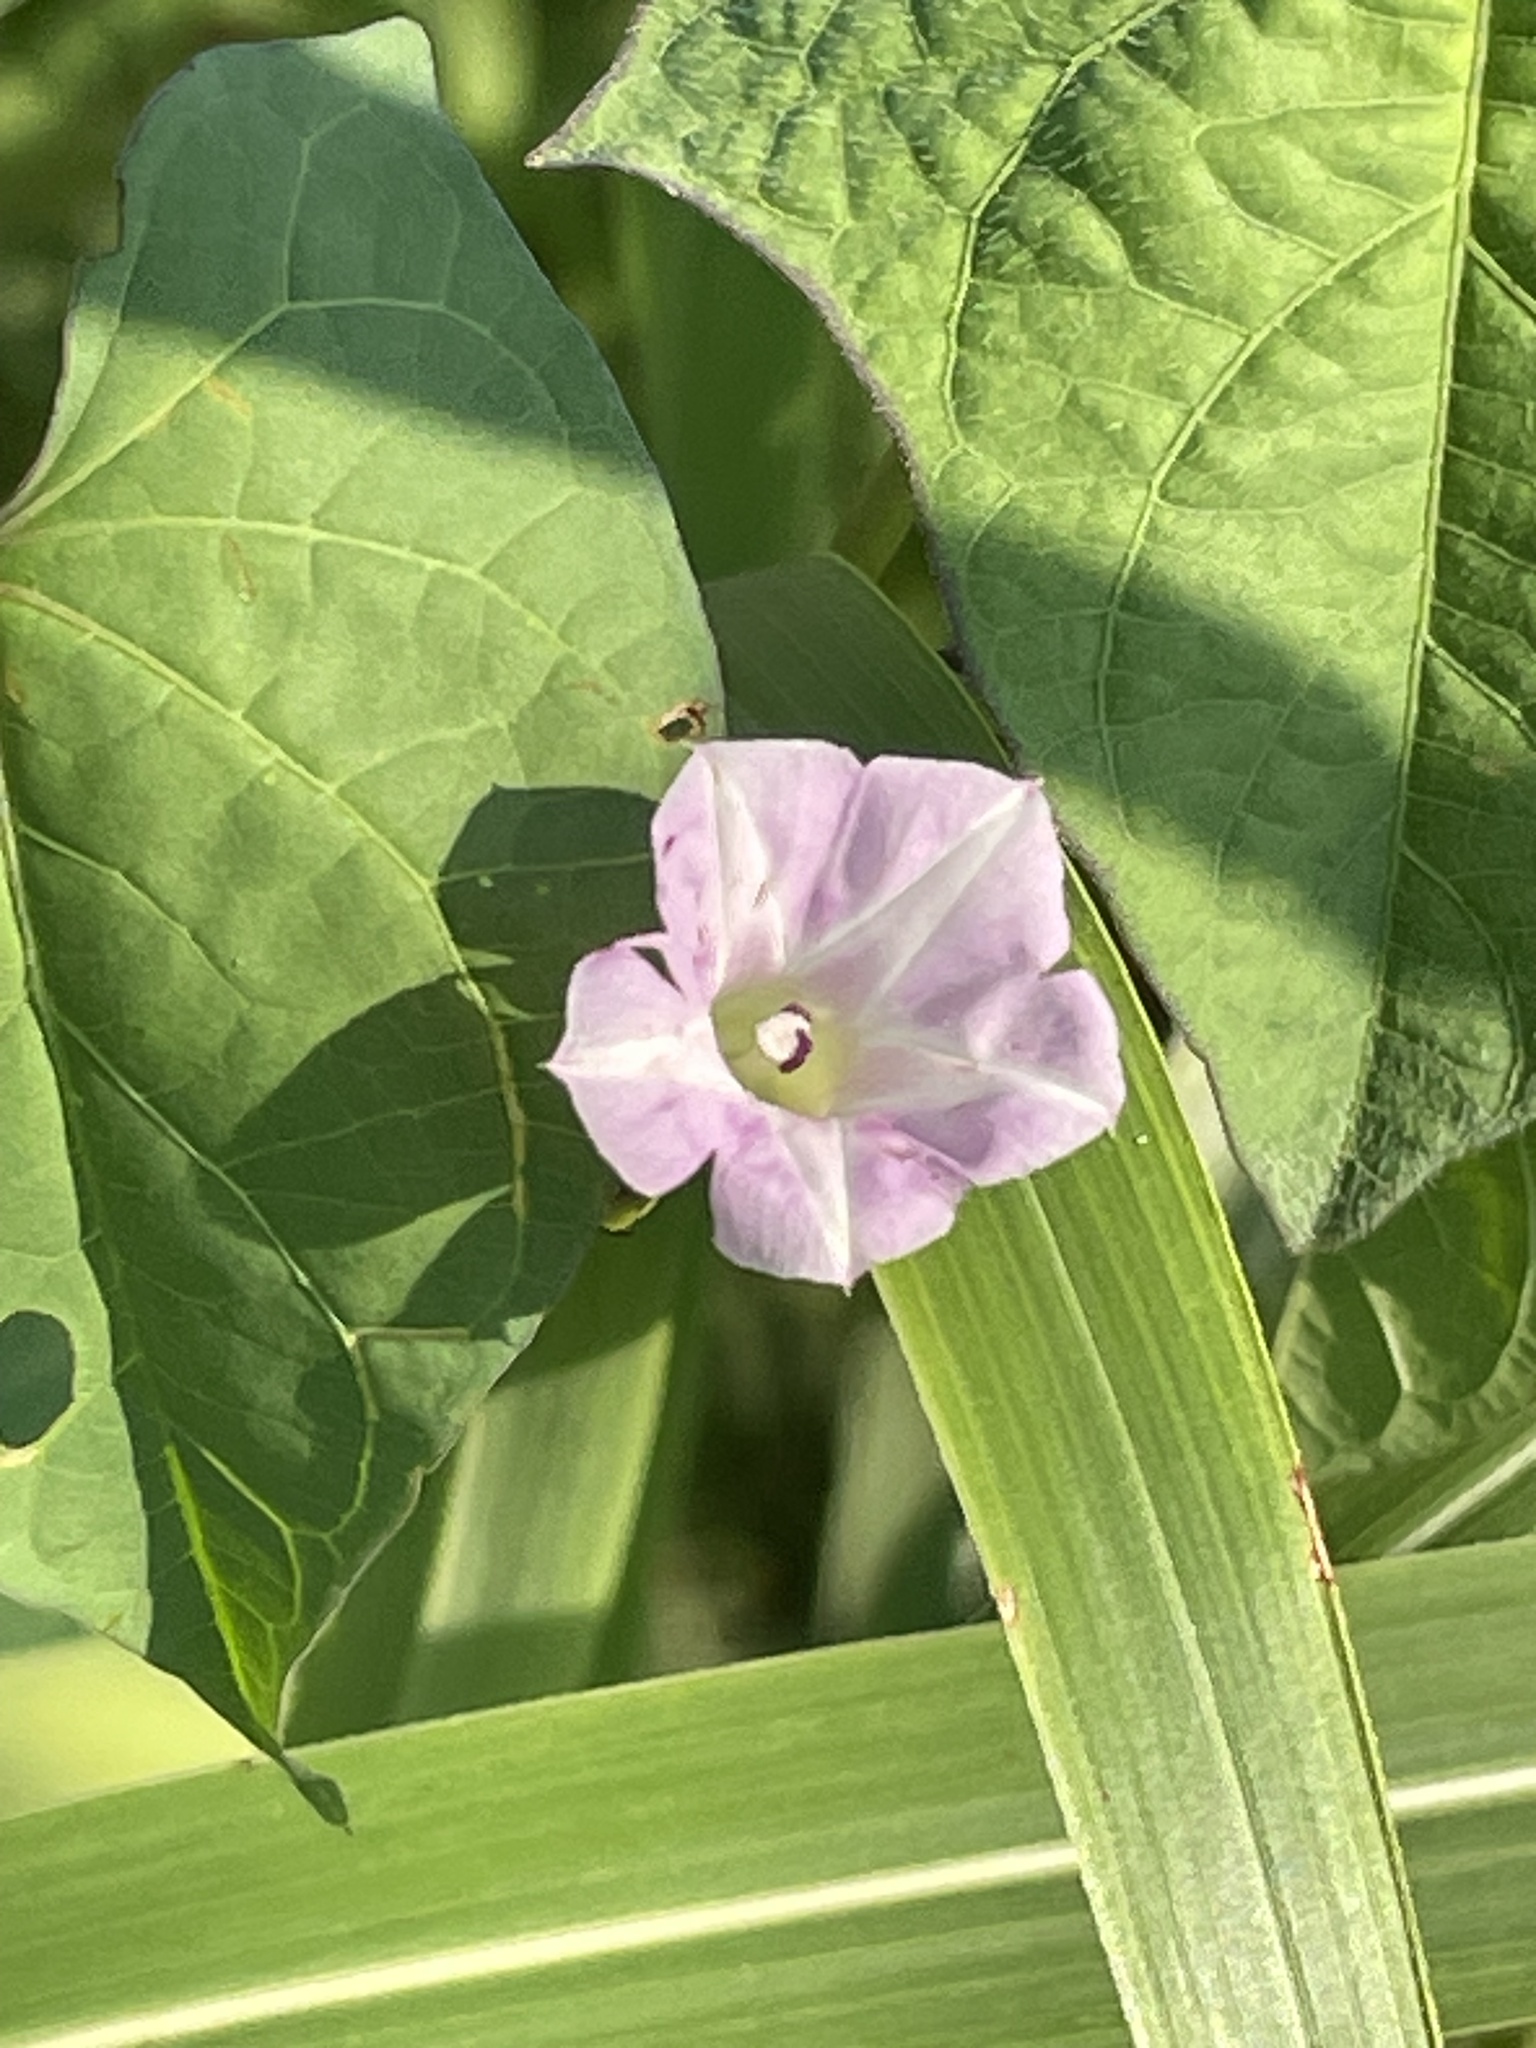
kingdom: Plantae
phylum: Tracheophyta
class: Magnoliopsida
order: Solanales
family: Convolvulaceae
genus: Ipomoea
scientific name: Ipomoea lacunosa
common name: White morning-glory
